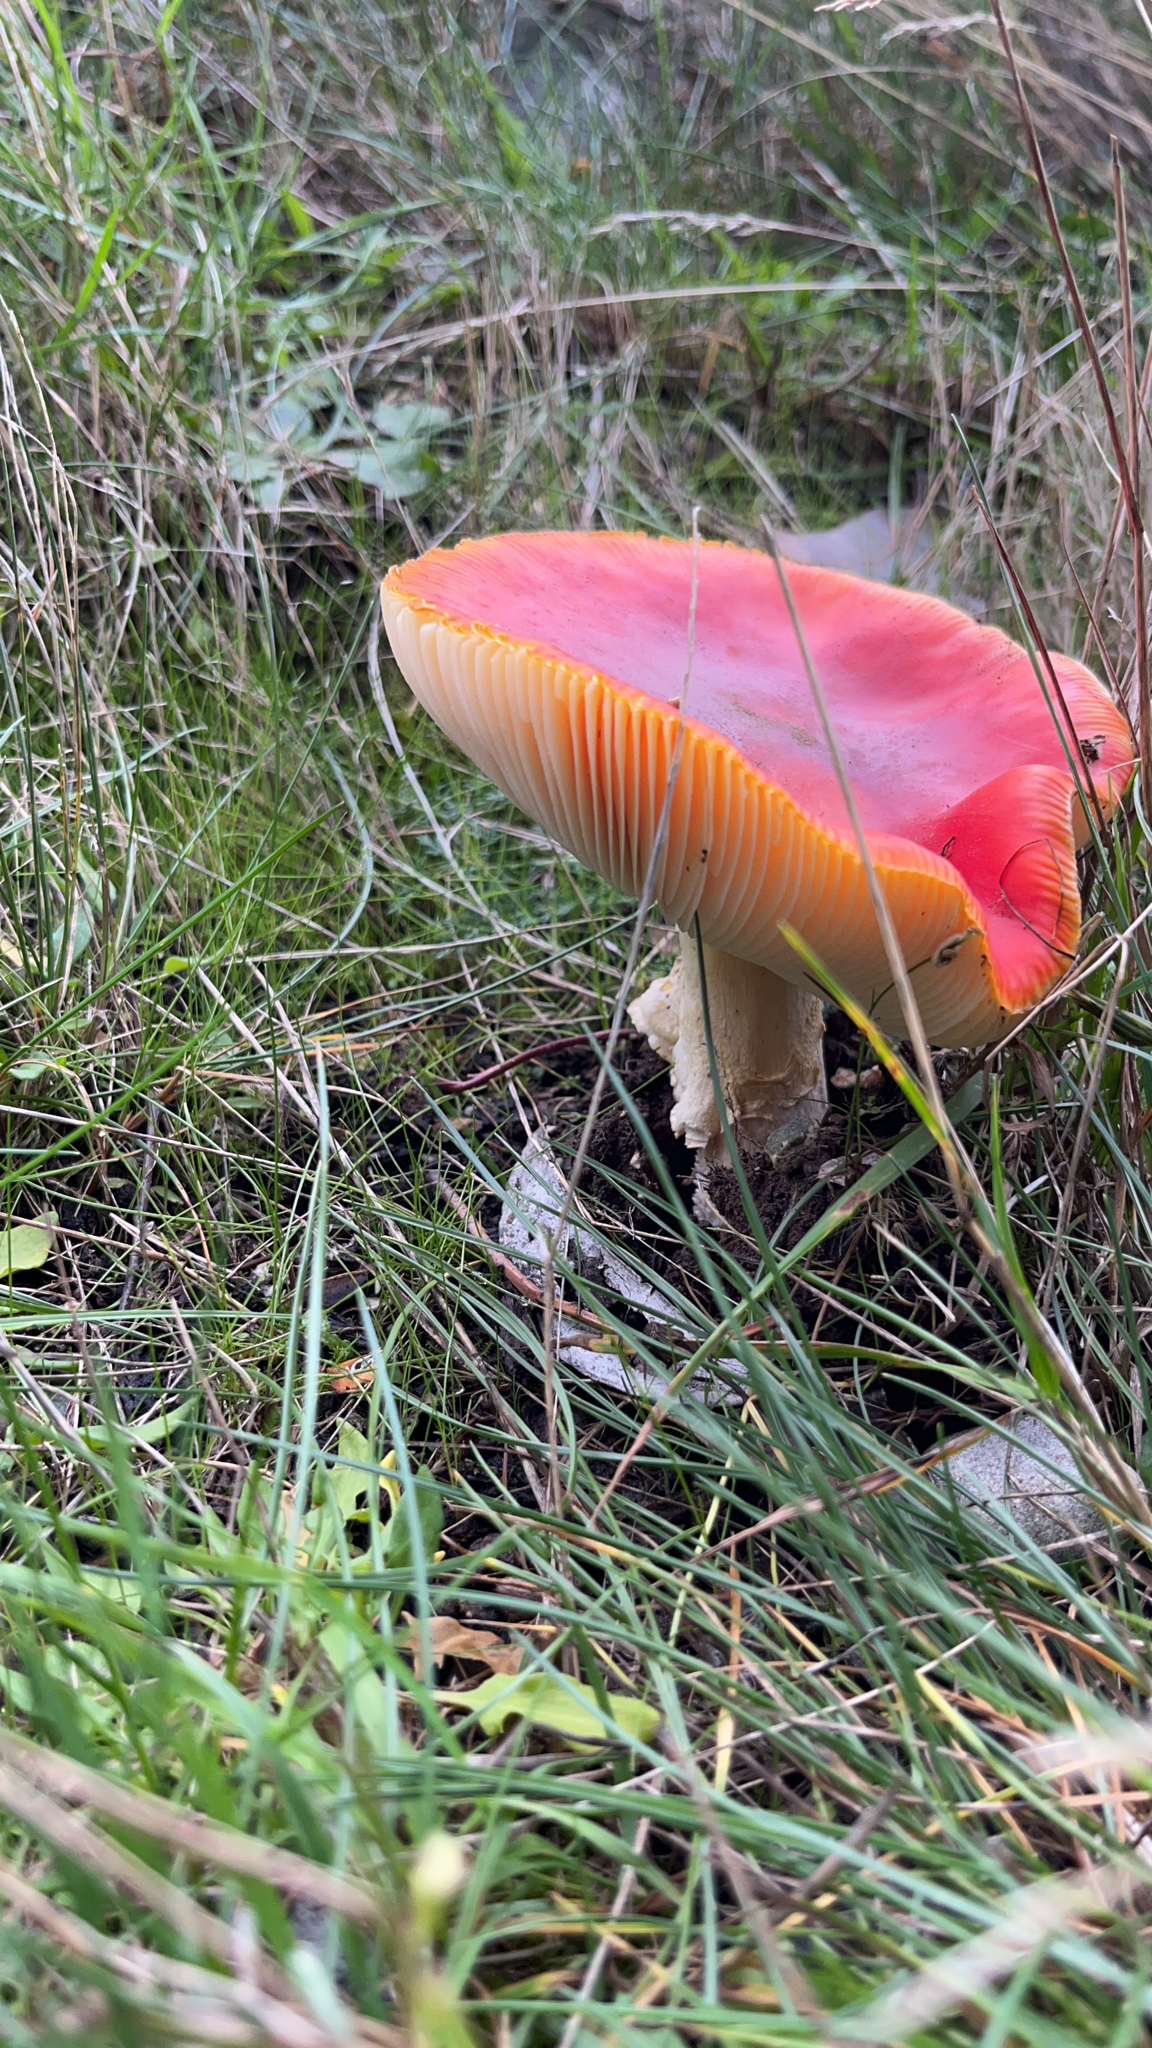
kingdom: Fungi
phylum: Basidiomycota
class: Agaricomycetes
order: Agaricales
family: Amanitaceae
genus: Amanita
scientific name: Amanita muscaria
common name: Fly agaric
